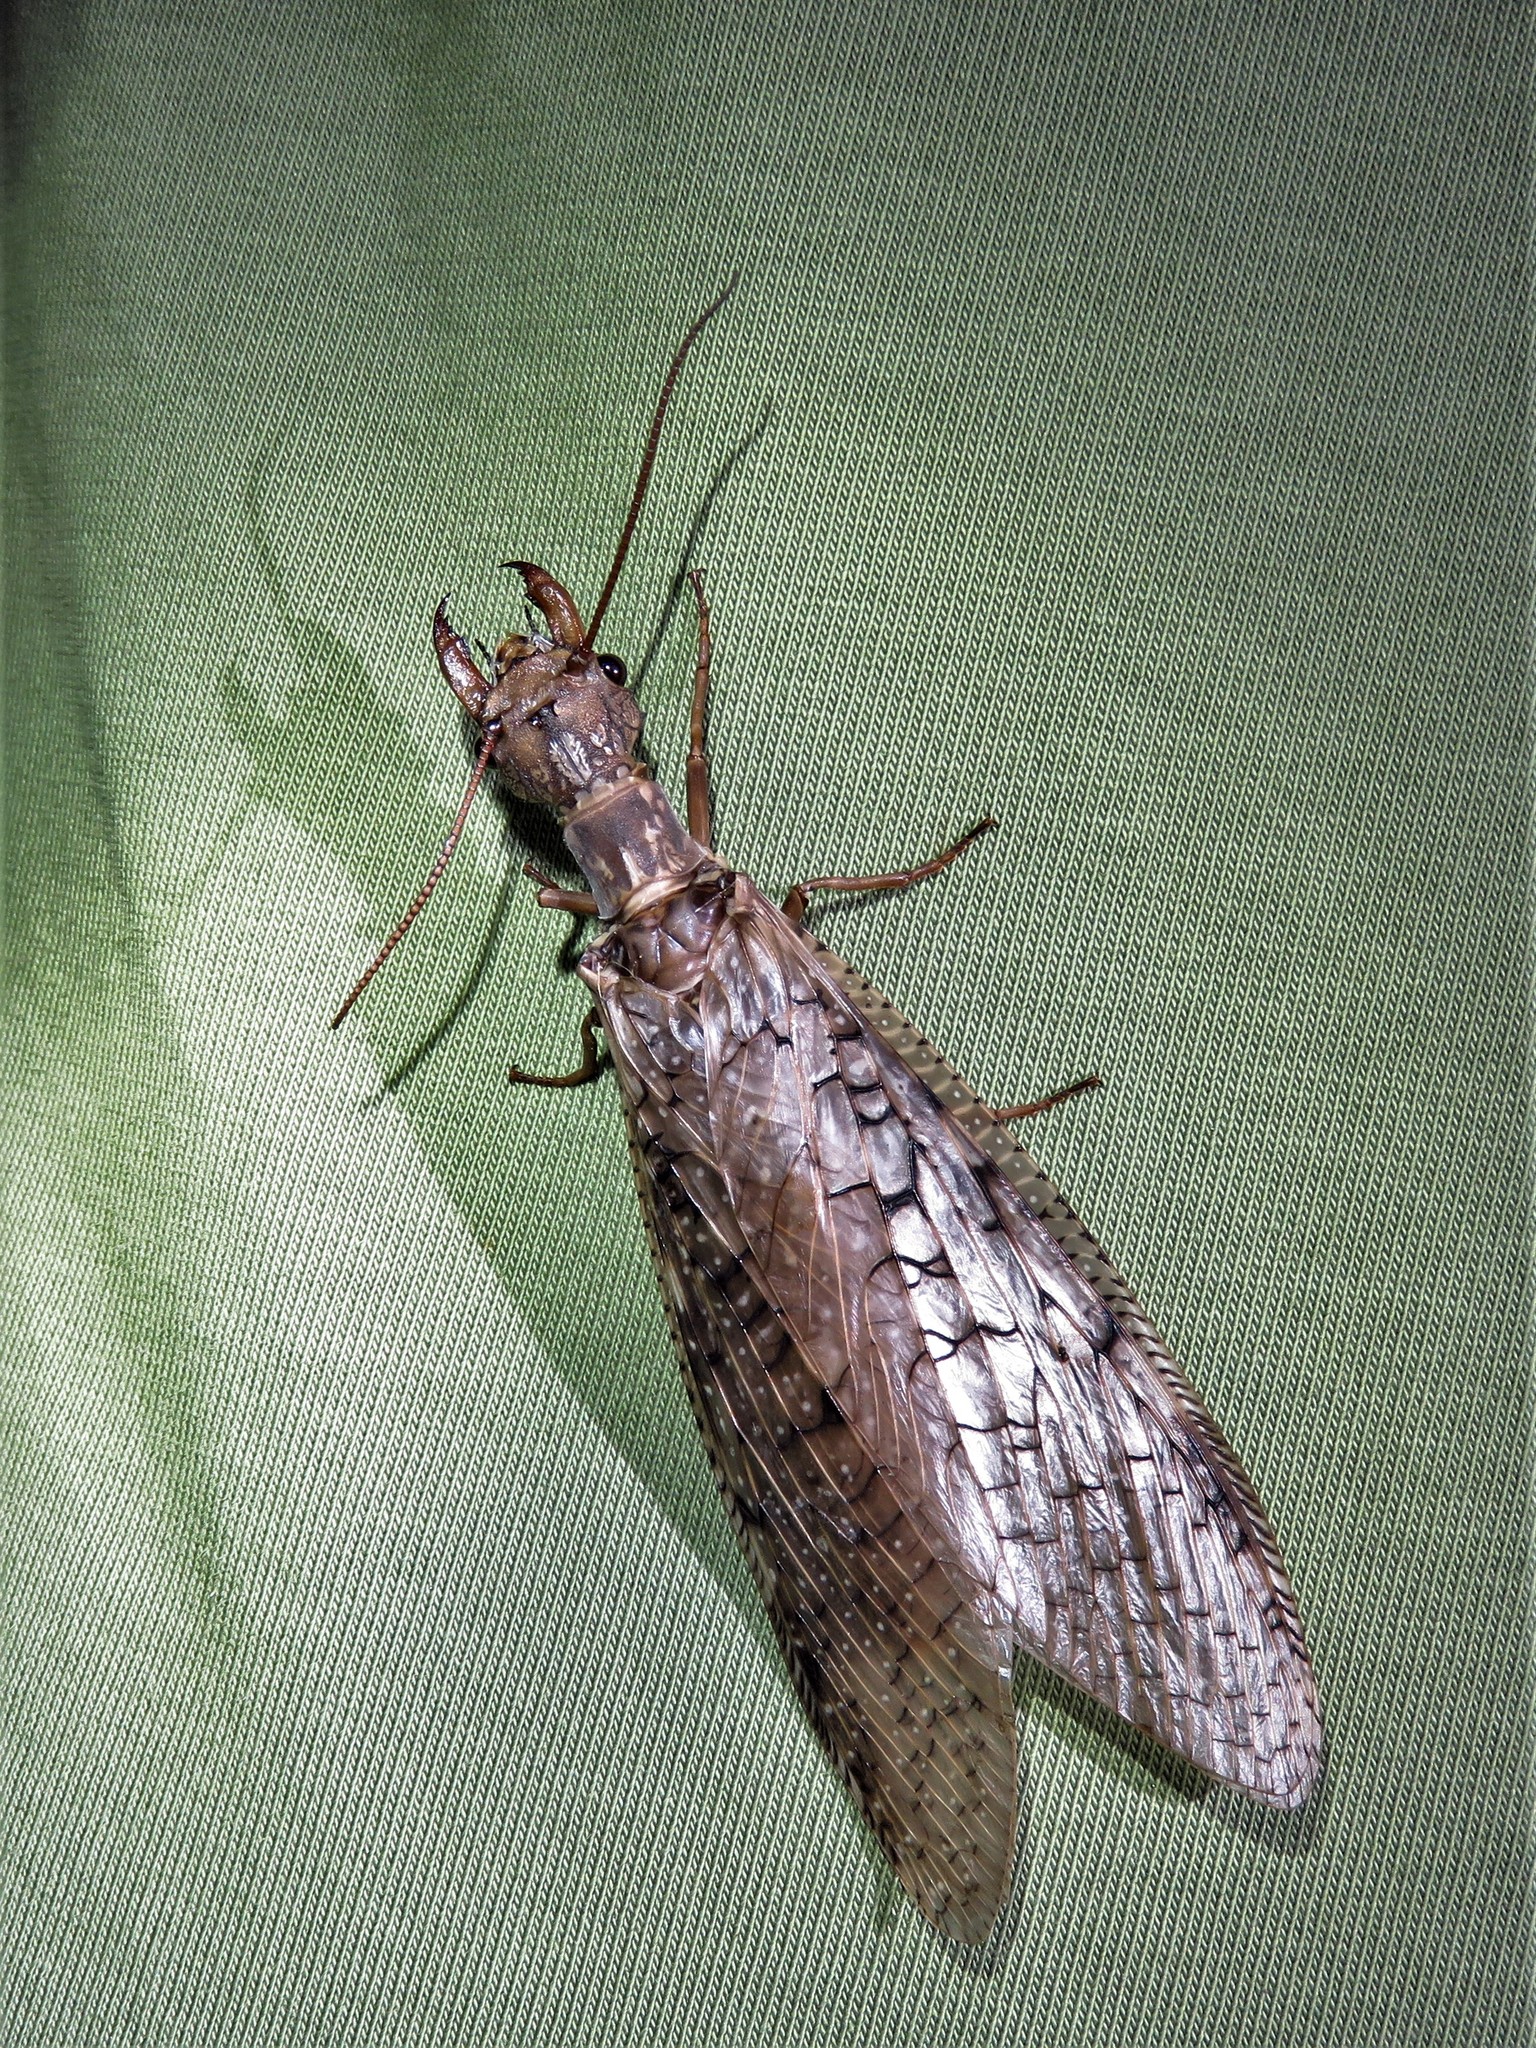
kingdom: Animalia
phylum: Arthropoda
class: Insecta
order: Megaloptera
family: Corydalidae
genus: Corydalus
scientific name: Corydalus cornutus
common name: Dobsonfly
